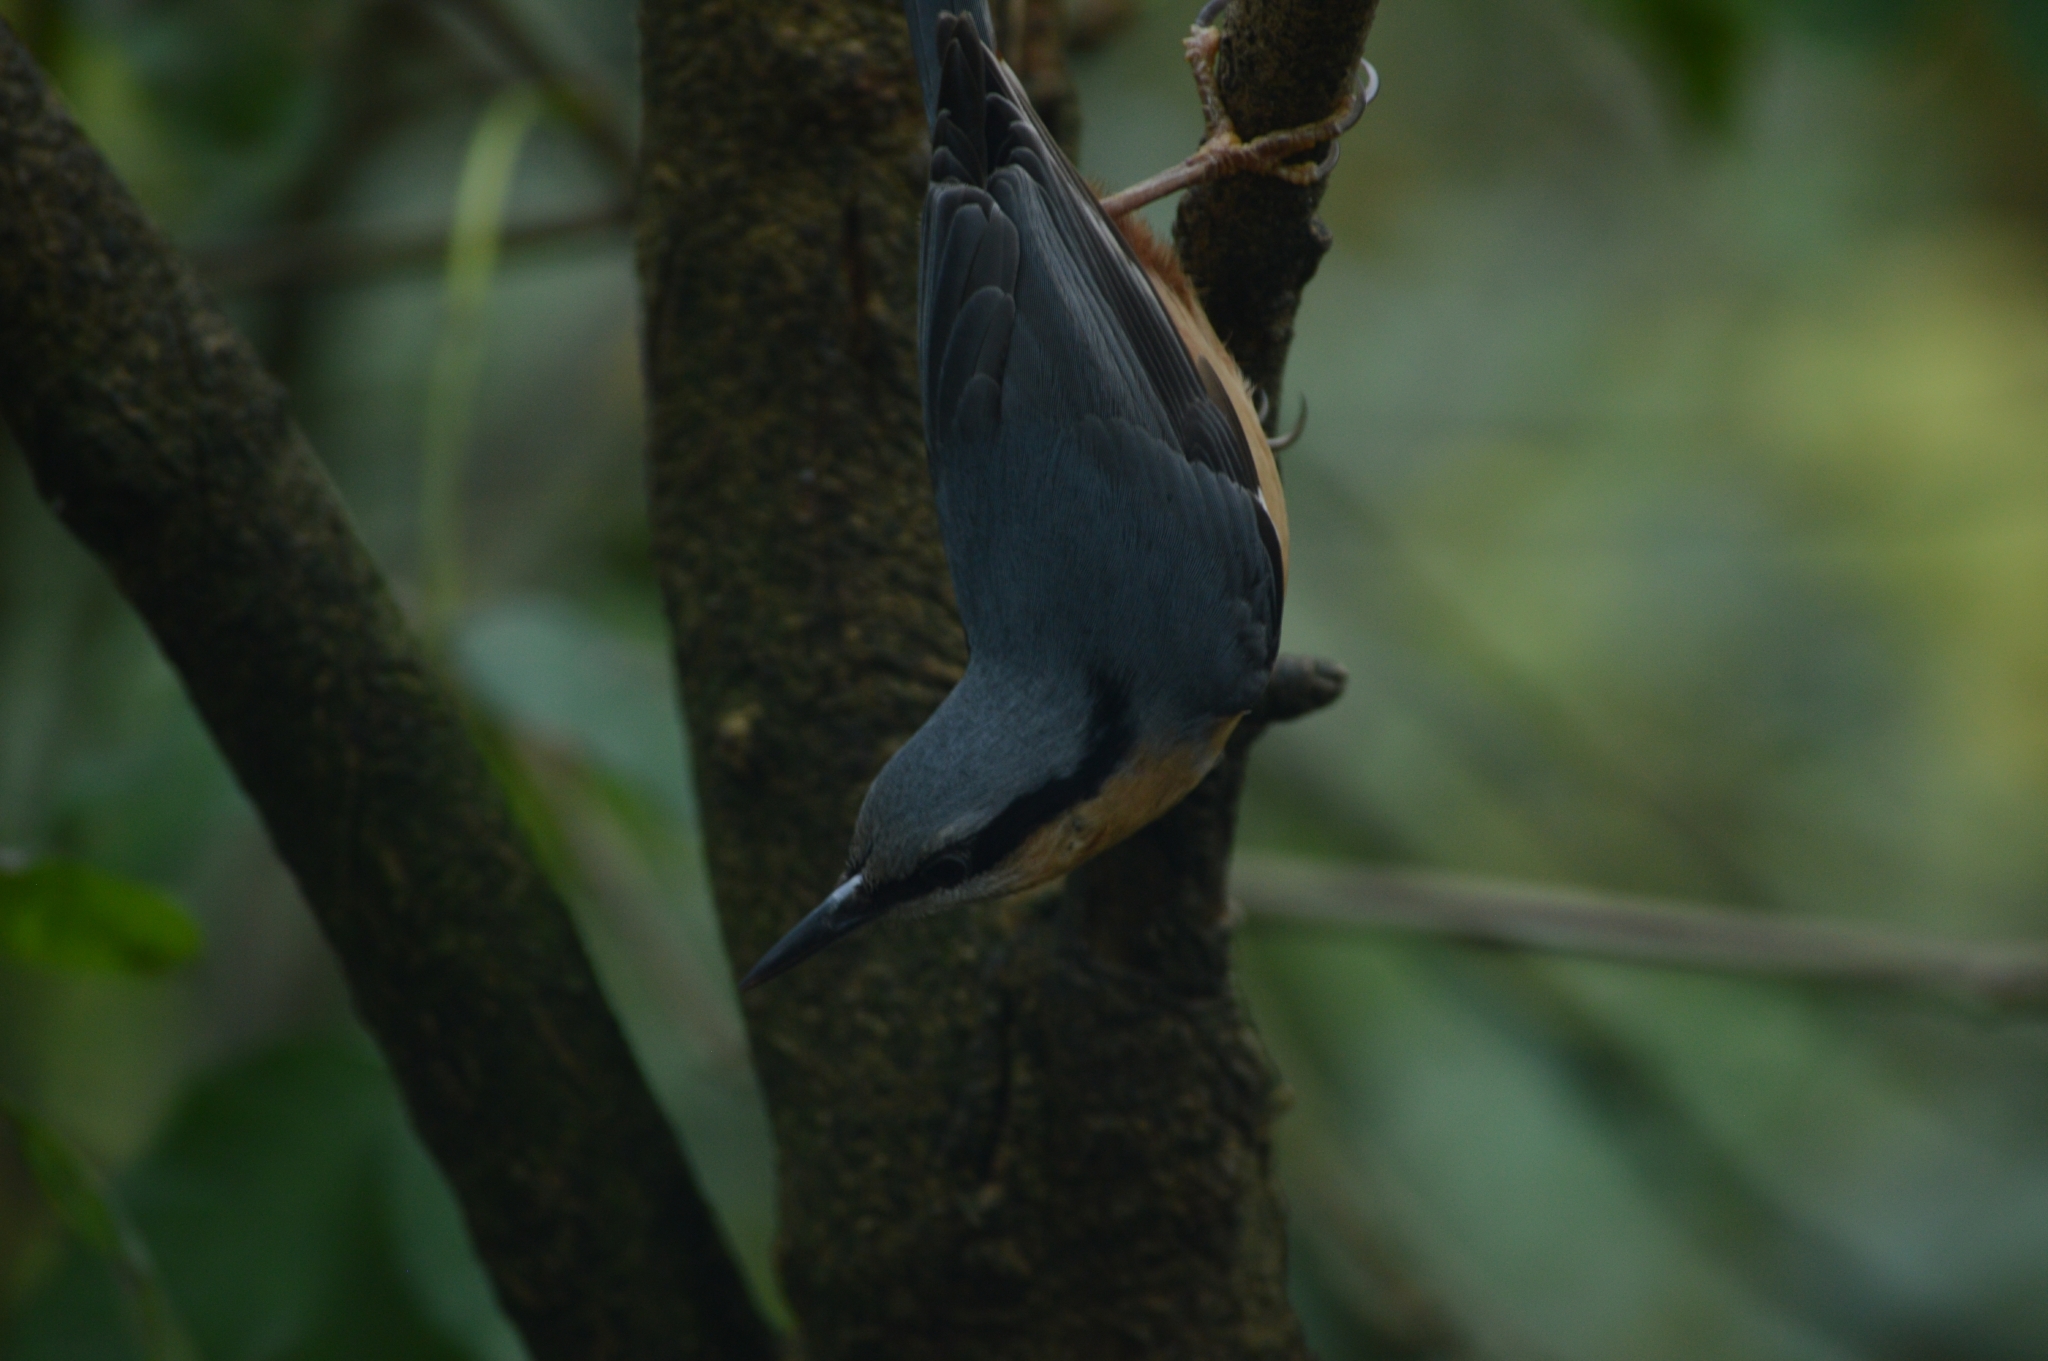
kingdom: Animalia
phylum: Chordata
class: Aves
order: Passeriformes
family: Sittidae
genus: Sitta
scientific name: Sitta europaea
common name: Eurasian nuthatch
